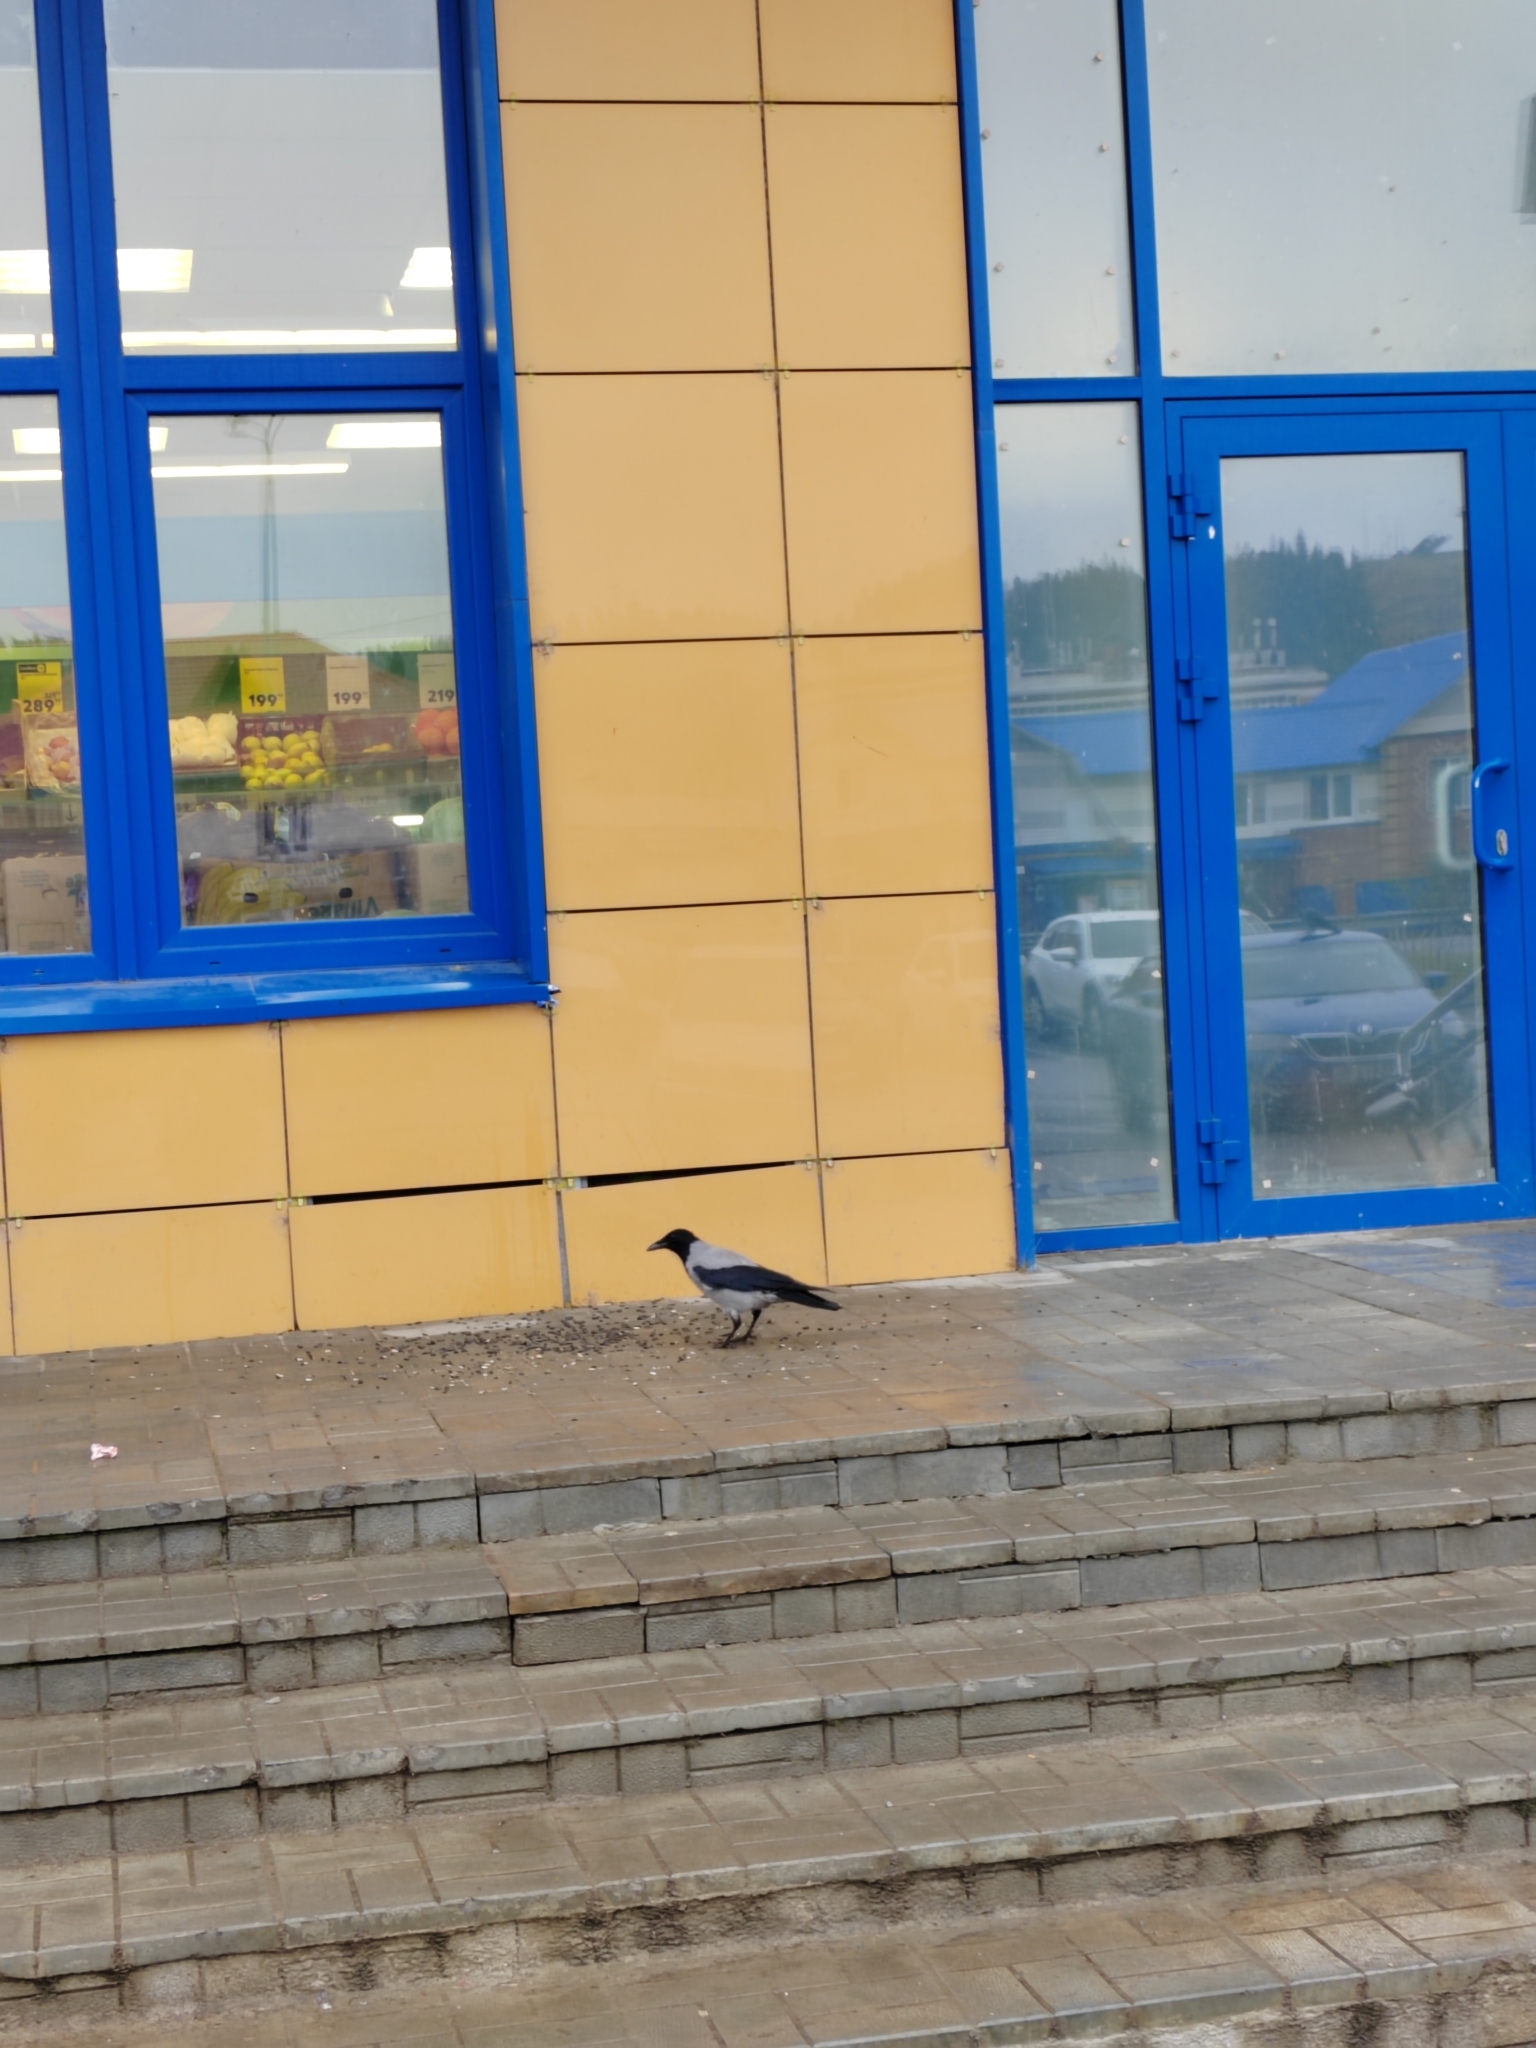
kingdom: Animalia
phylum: Chordata
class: Aves
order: Passeriformes
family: Corvidae
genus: Corvus
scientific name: Corvus cornix
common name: Hooded crow
